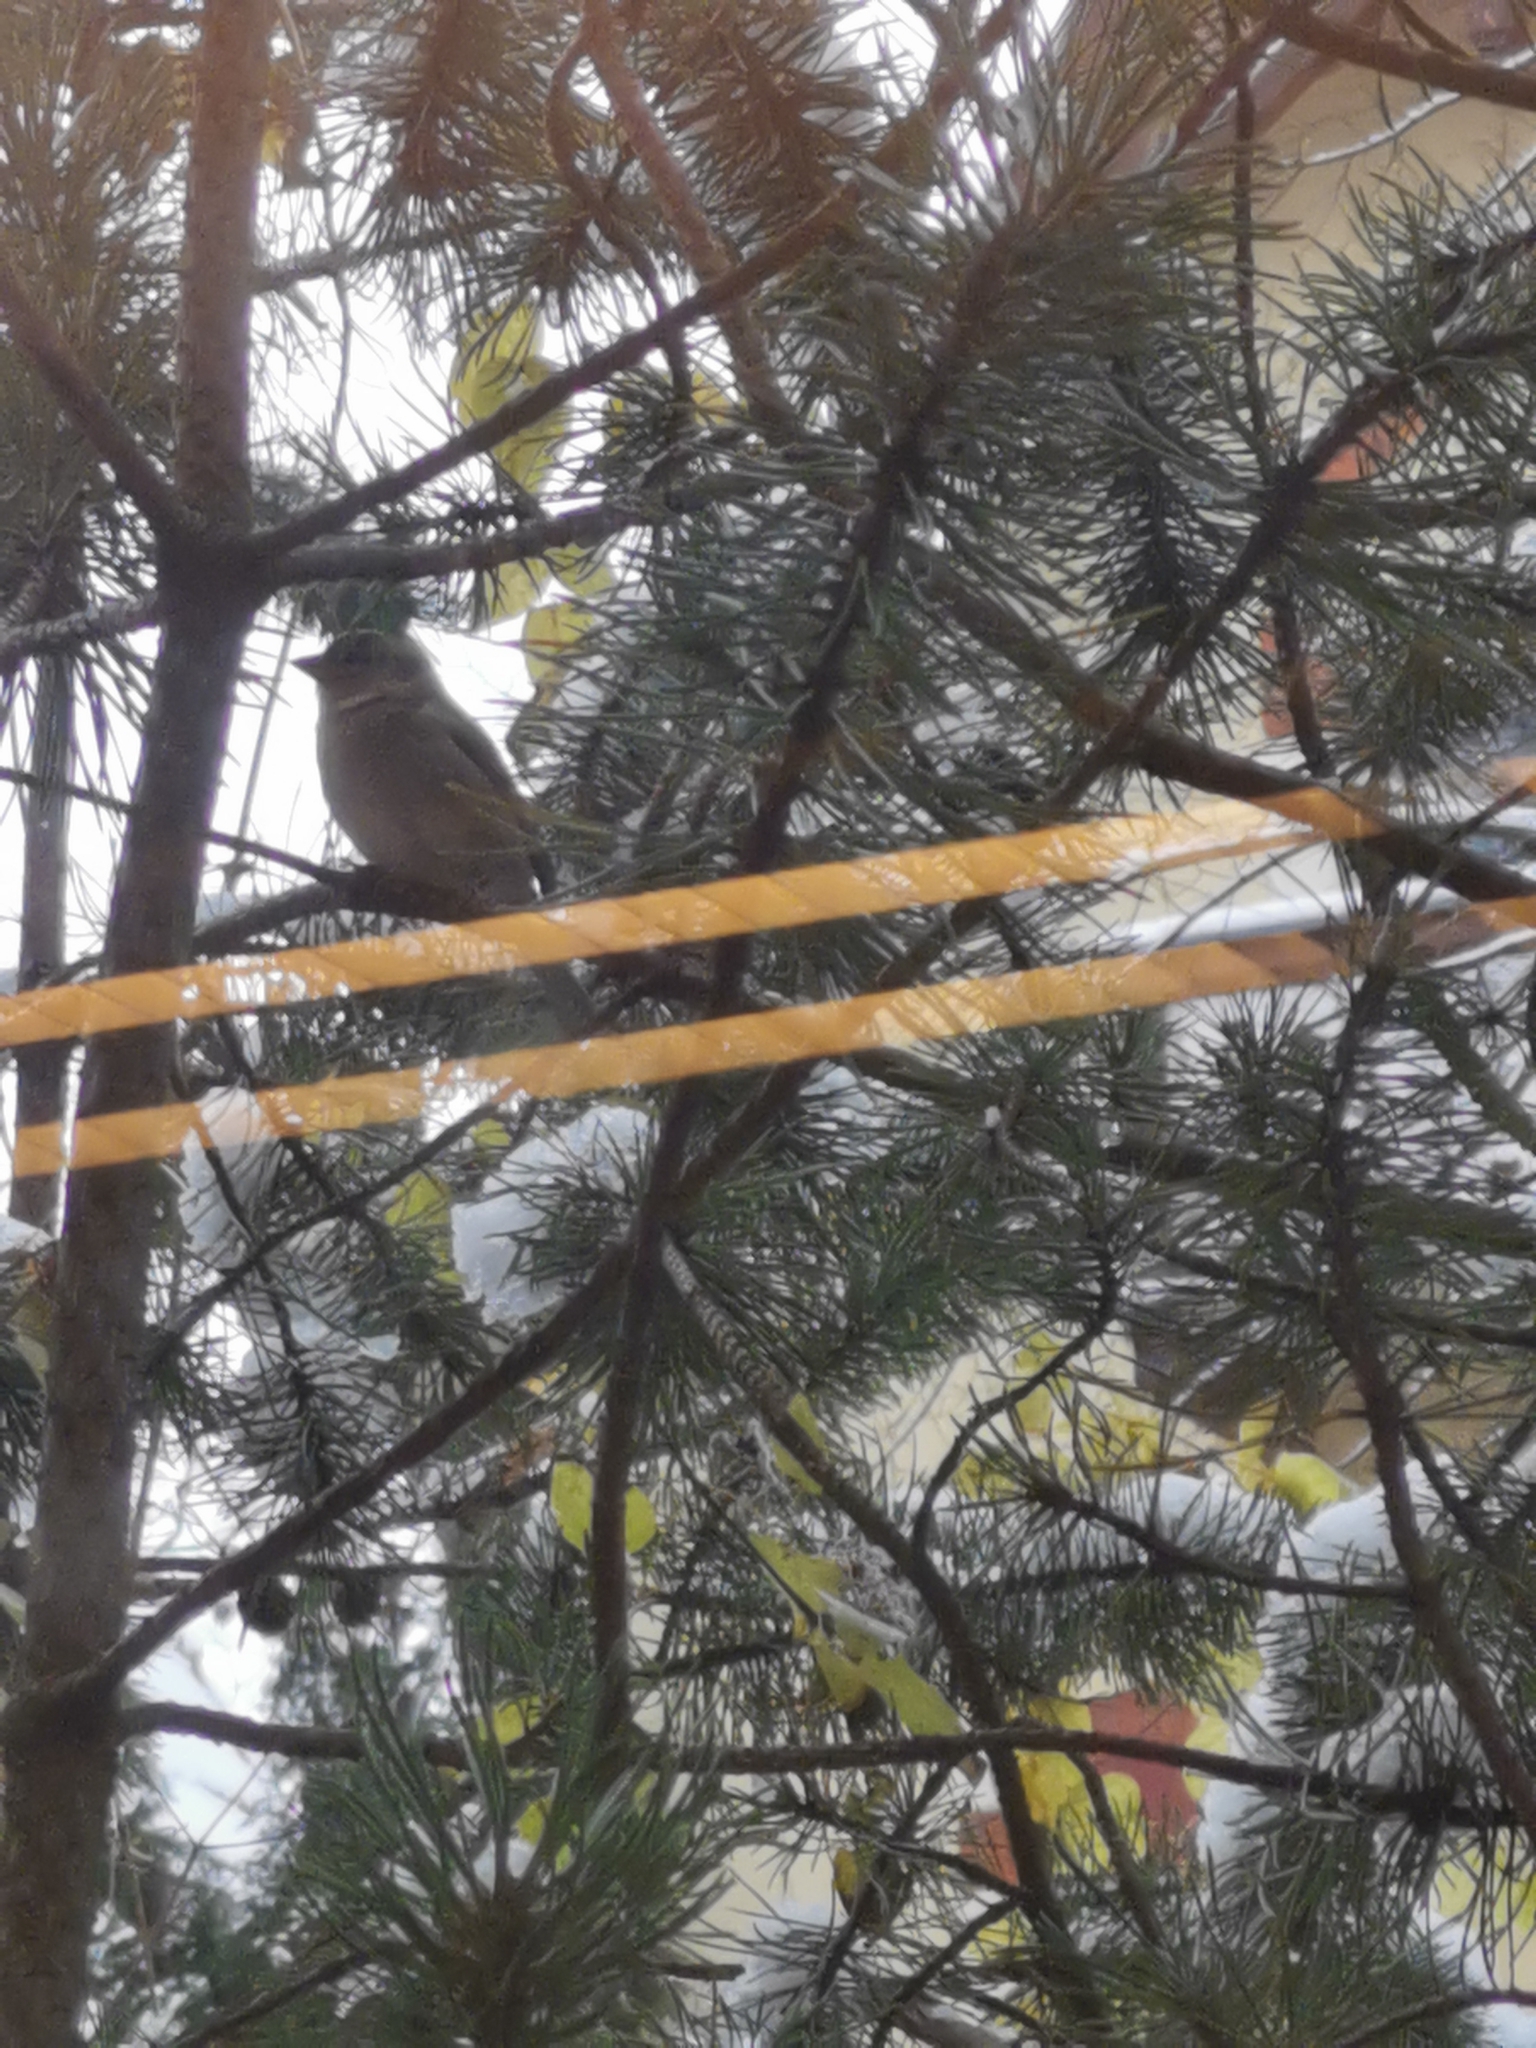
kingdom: Animalia
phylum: Chordata
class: Aves
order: Passeriformes
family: Passeridae
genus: Passer
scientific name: Passer domesticus
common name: House sparrow
